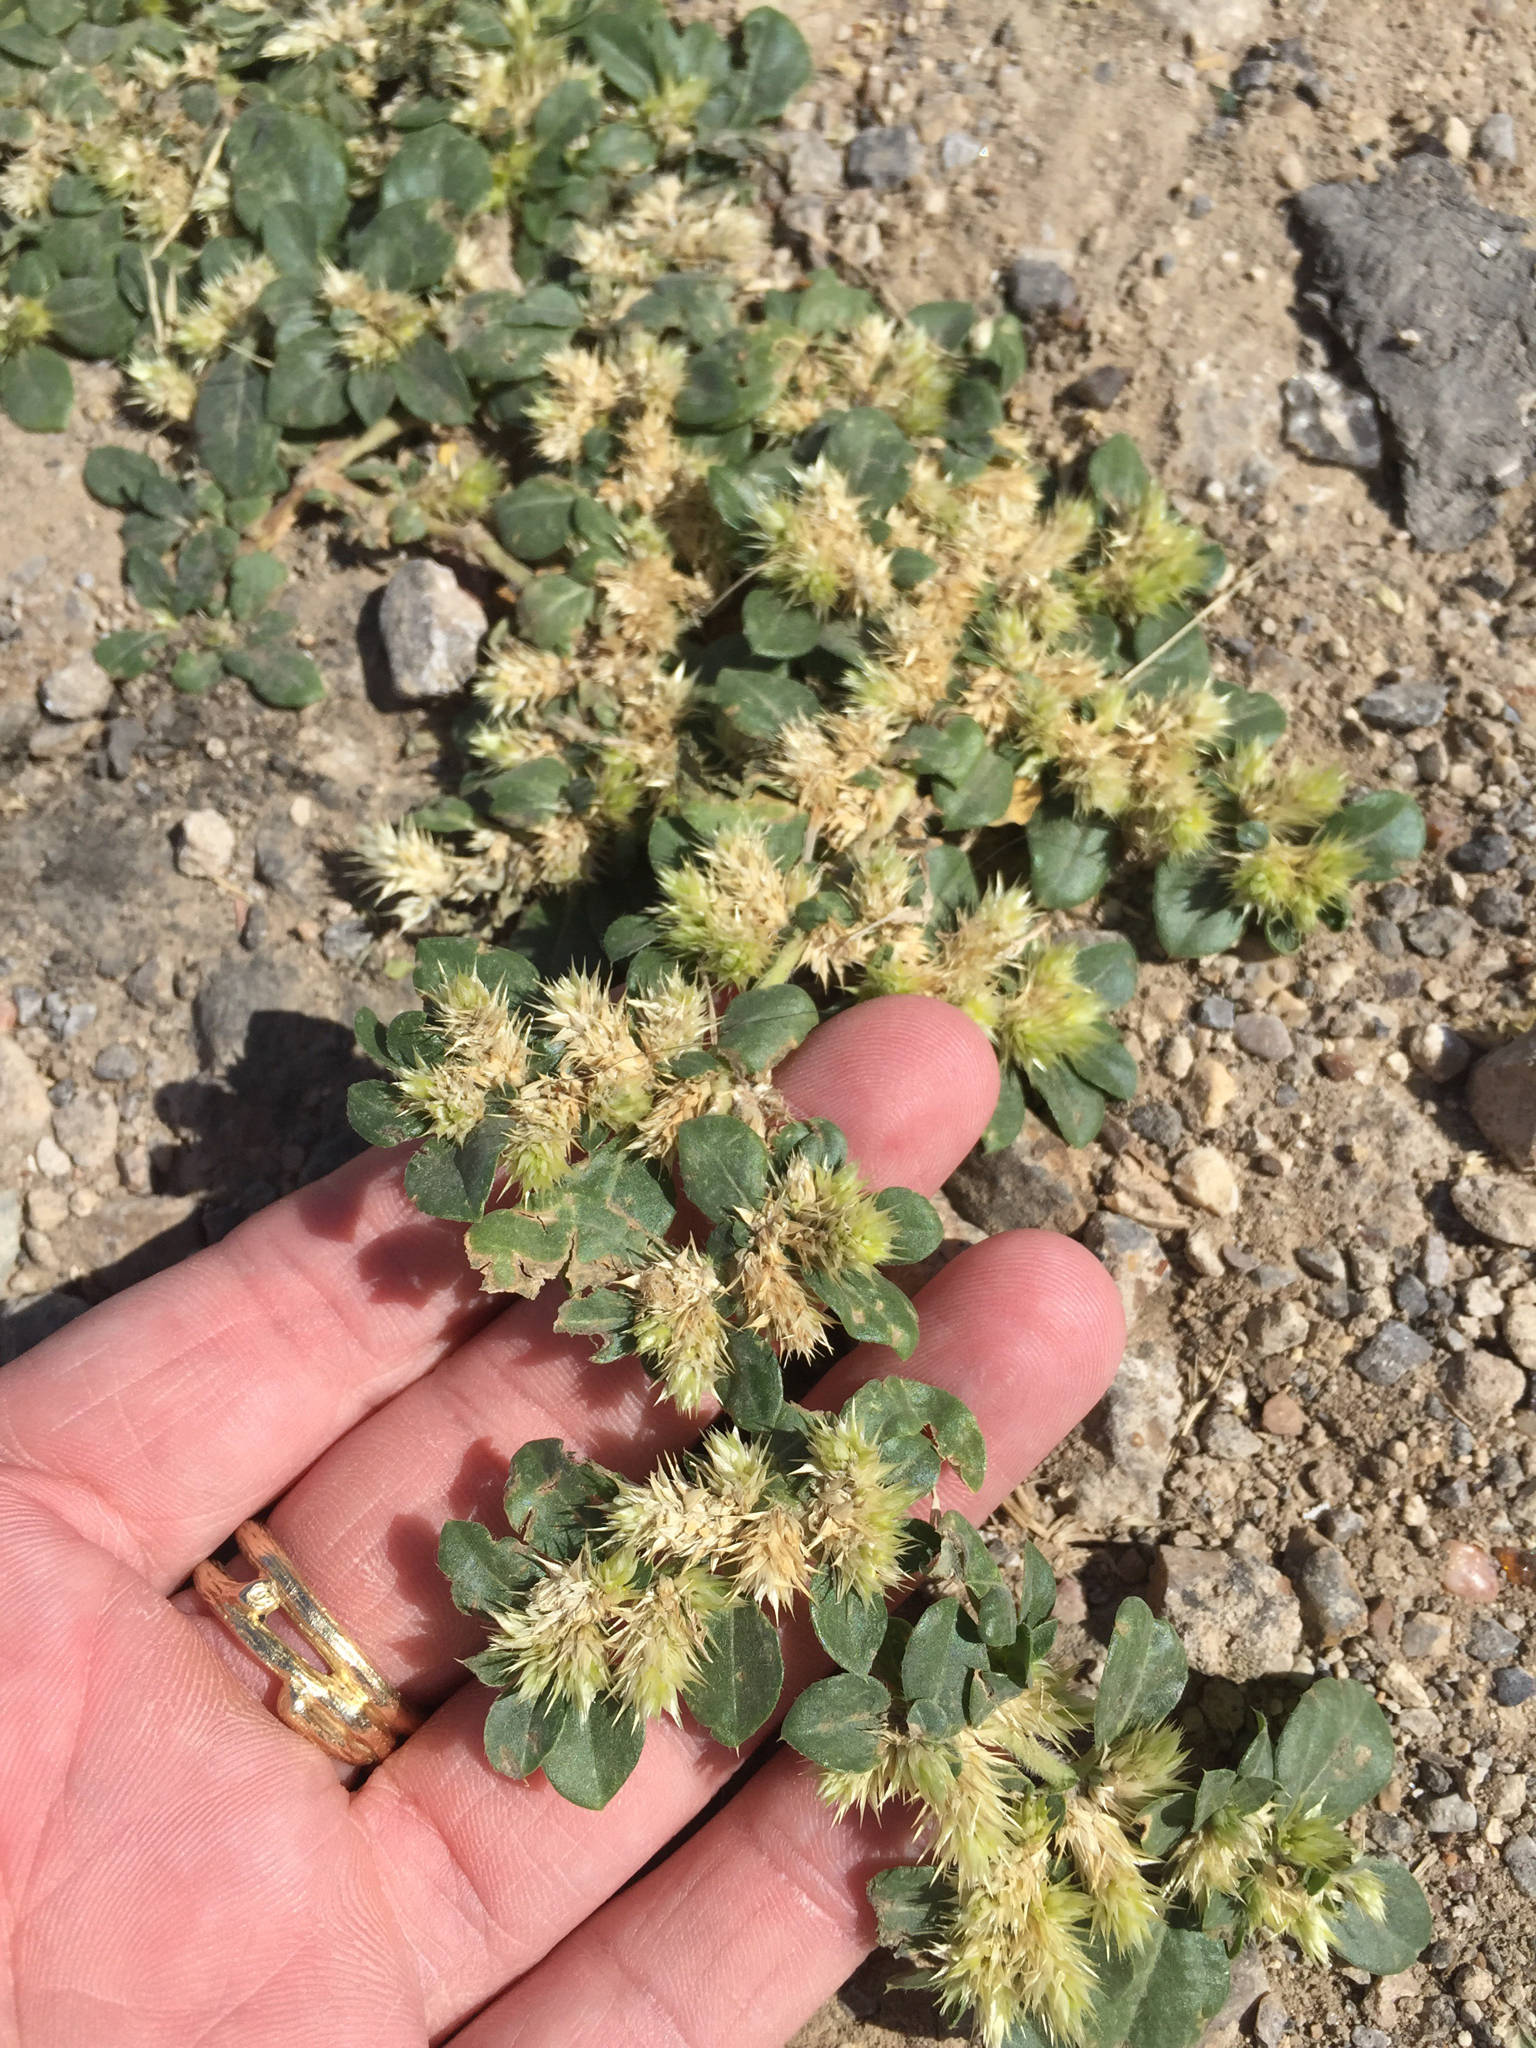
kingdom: Plantae
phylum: Tracheophyta
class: Magnoliopsida
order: Caryophyllales
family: Amaranthaceae
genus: Alternanthera
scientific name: Alternanthera pungens
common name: Khakiweed
